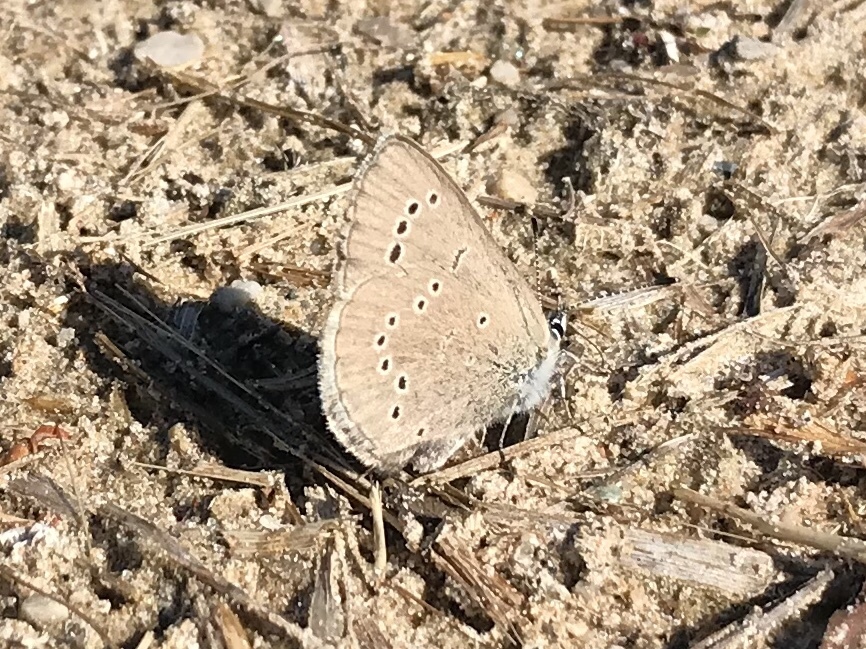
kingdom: Animalia
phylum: Arthropoda
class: Insecta
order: Lepidoptera
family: Lycaenidae
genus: Glaucopsyche
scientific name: Glaucopsyche lygdamus
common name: Silvery blue
